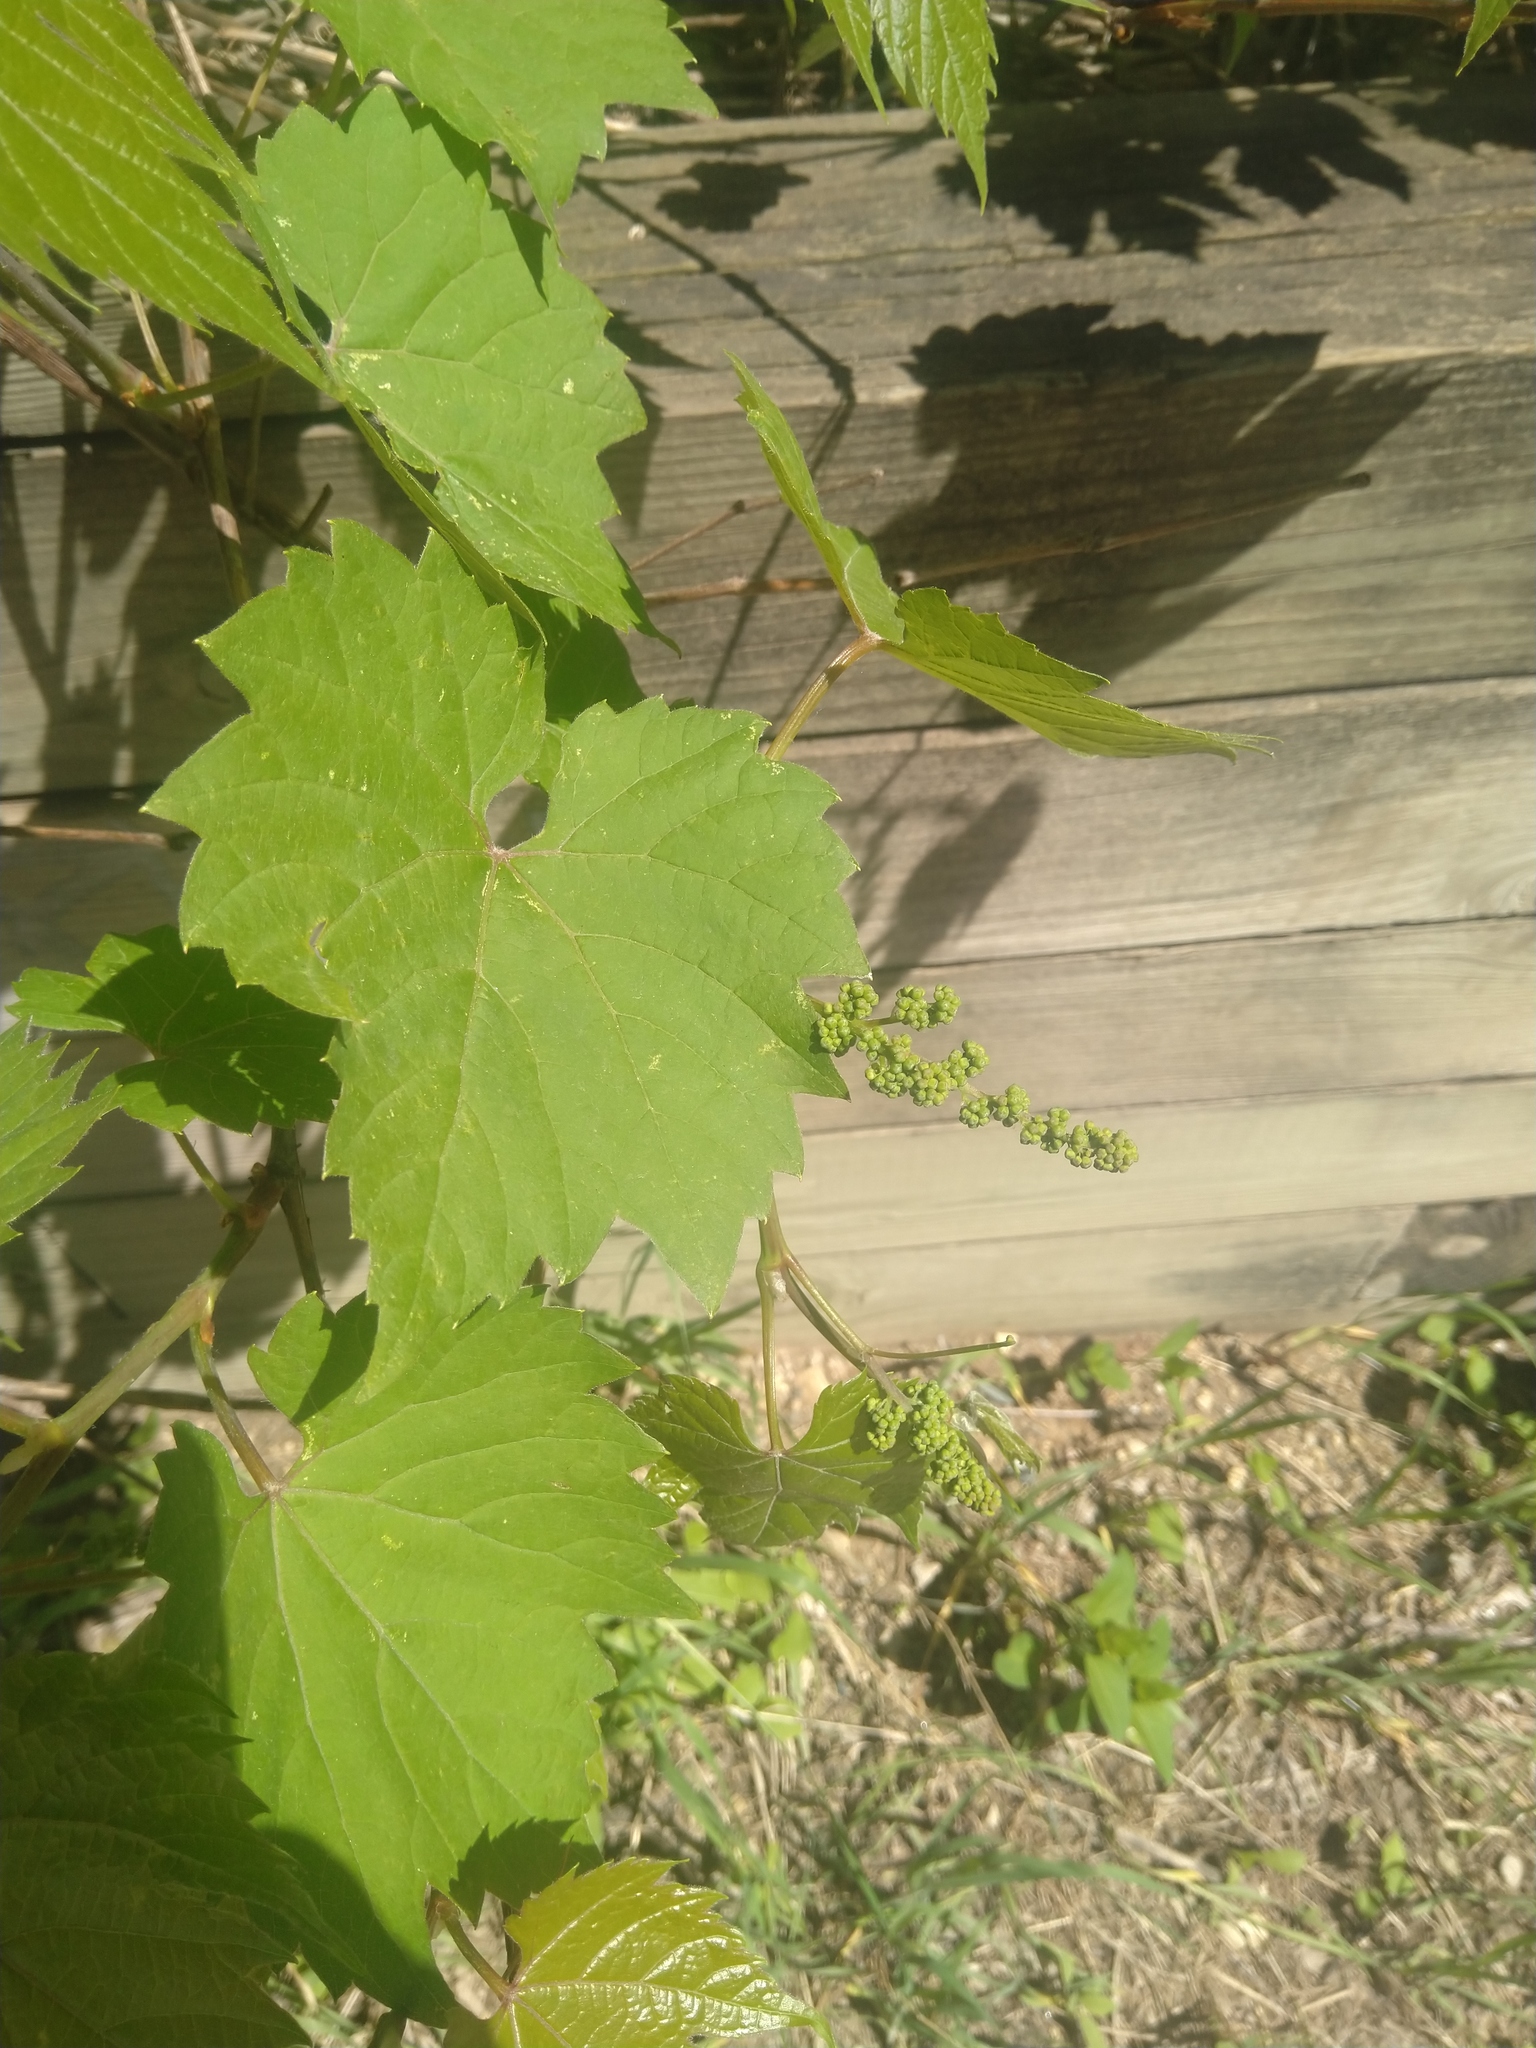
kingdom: Plantae
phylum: Tracheophyta
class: Magnoliopsida
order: Vitales
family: Vitaceae
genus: Vitis
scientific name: Vitis riparia
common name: Frost grape
